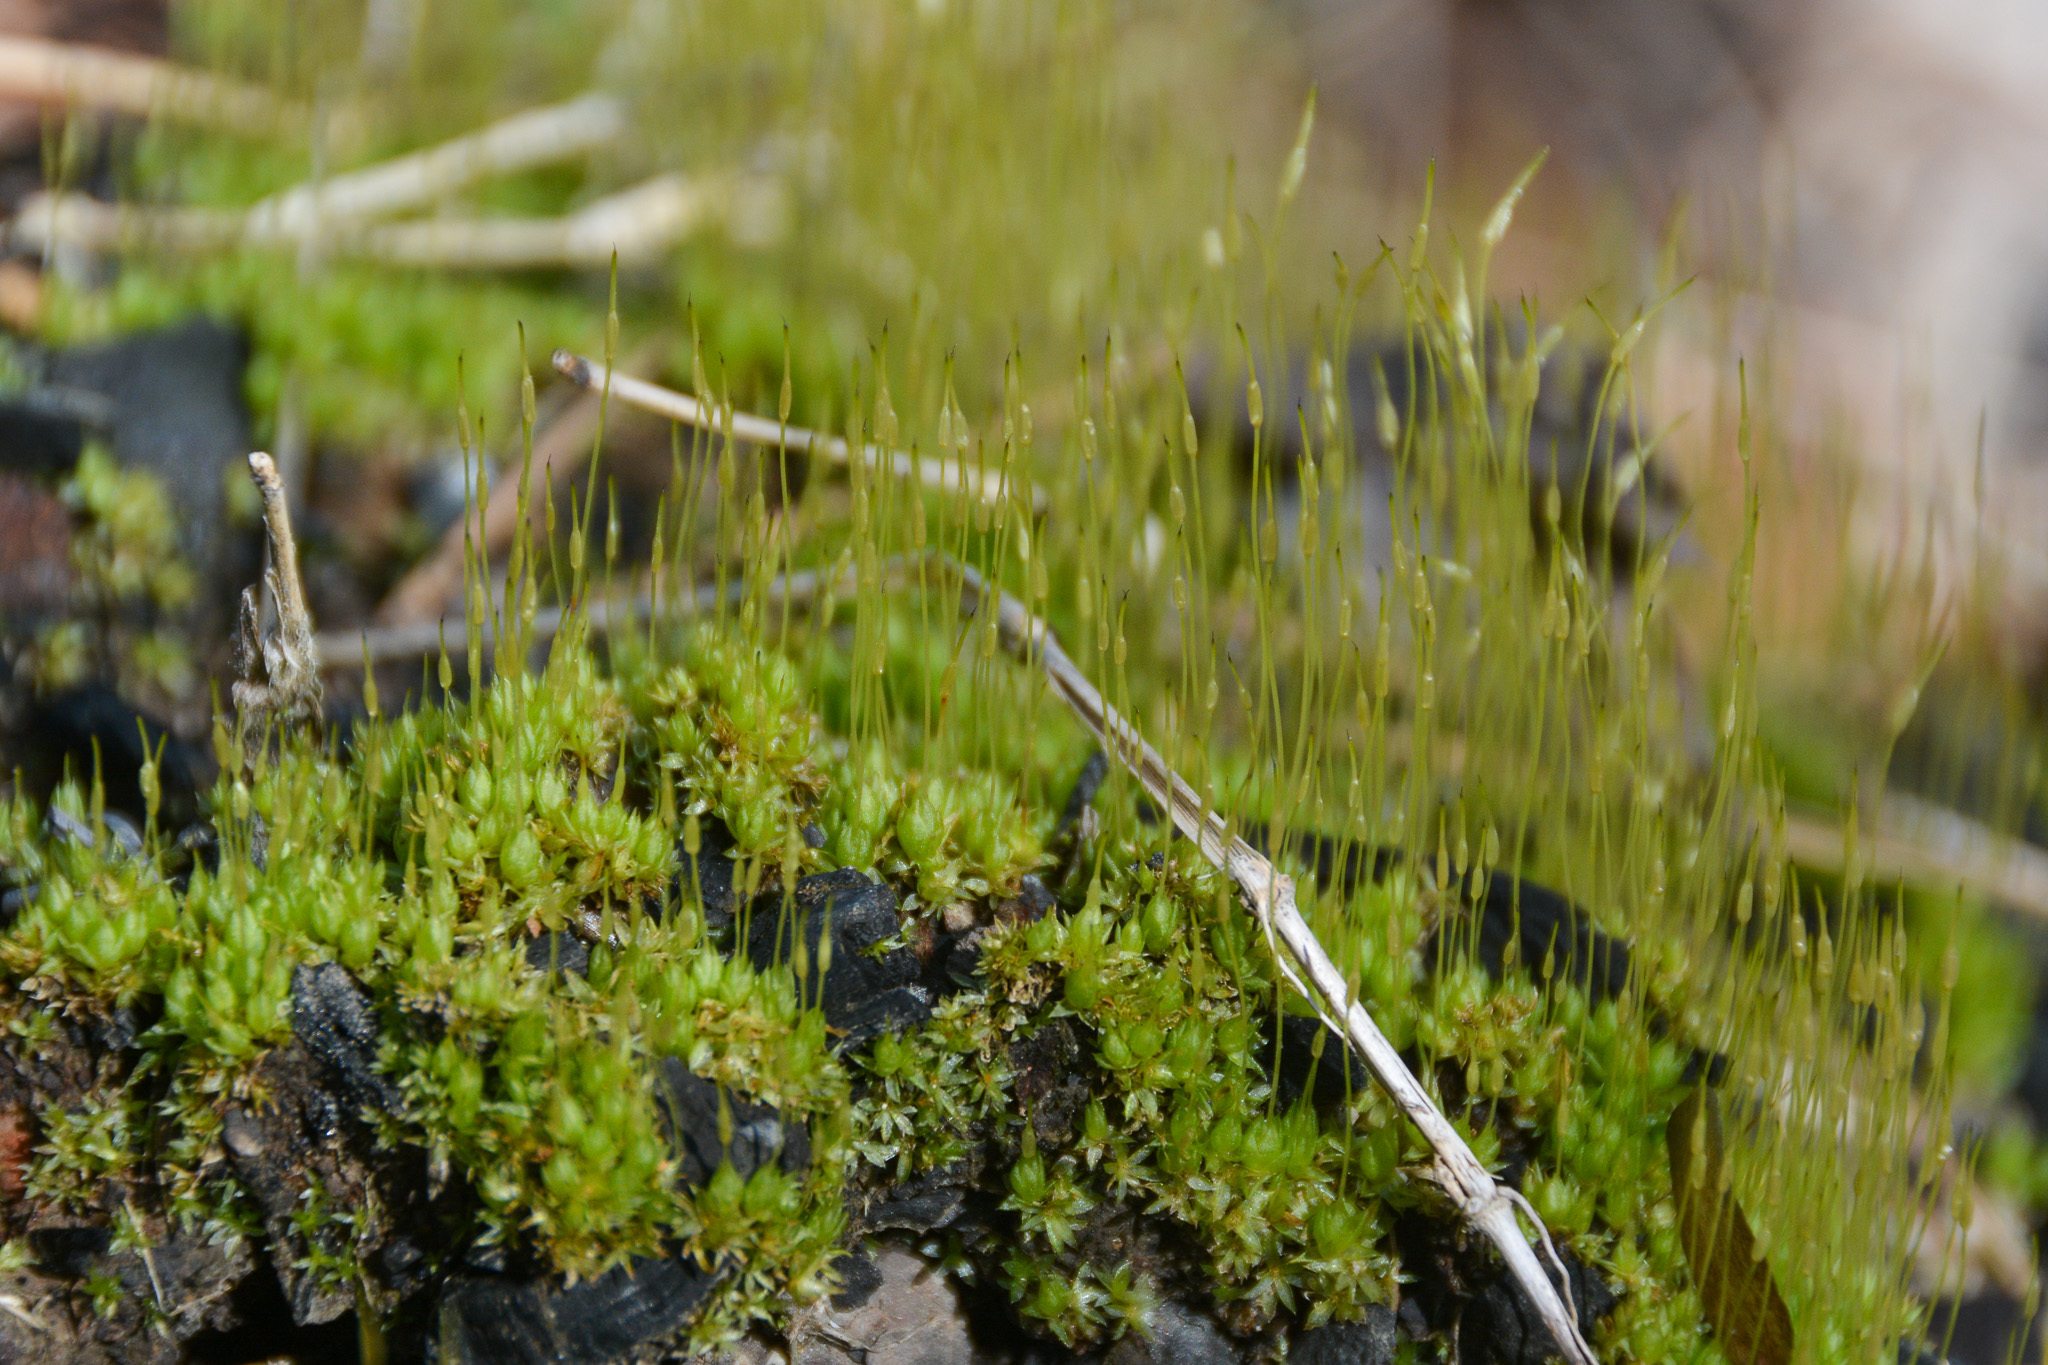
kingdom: Plantae
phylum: Bryophyta
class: Bryopsida
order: Funariales
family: Funariaceae
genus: Funaria
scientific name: Funaria hygrometrica
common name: Common cord moss
